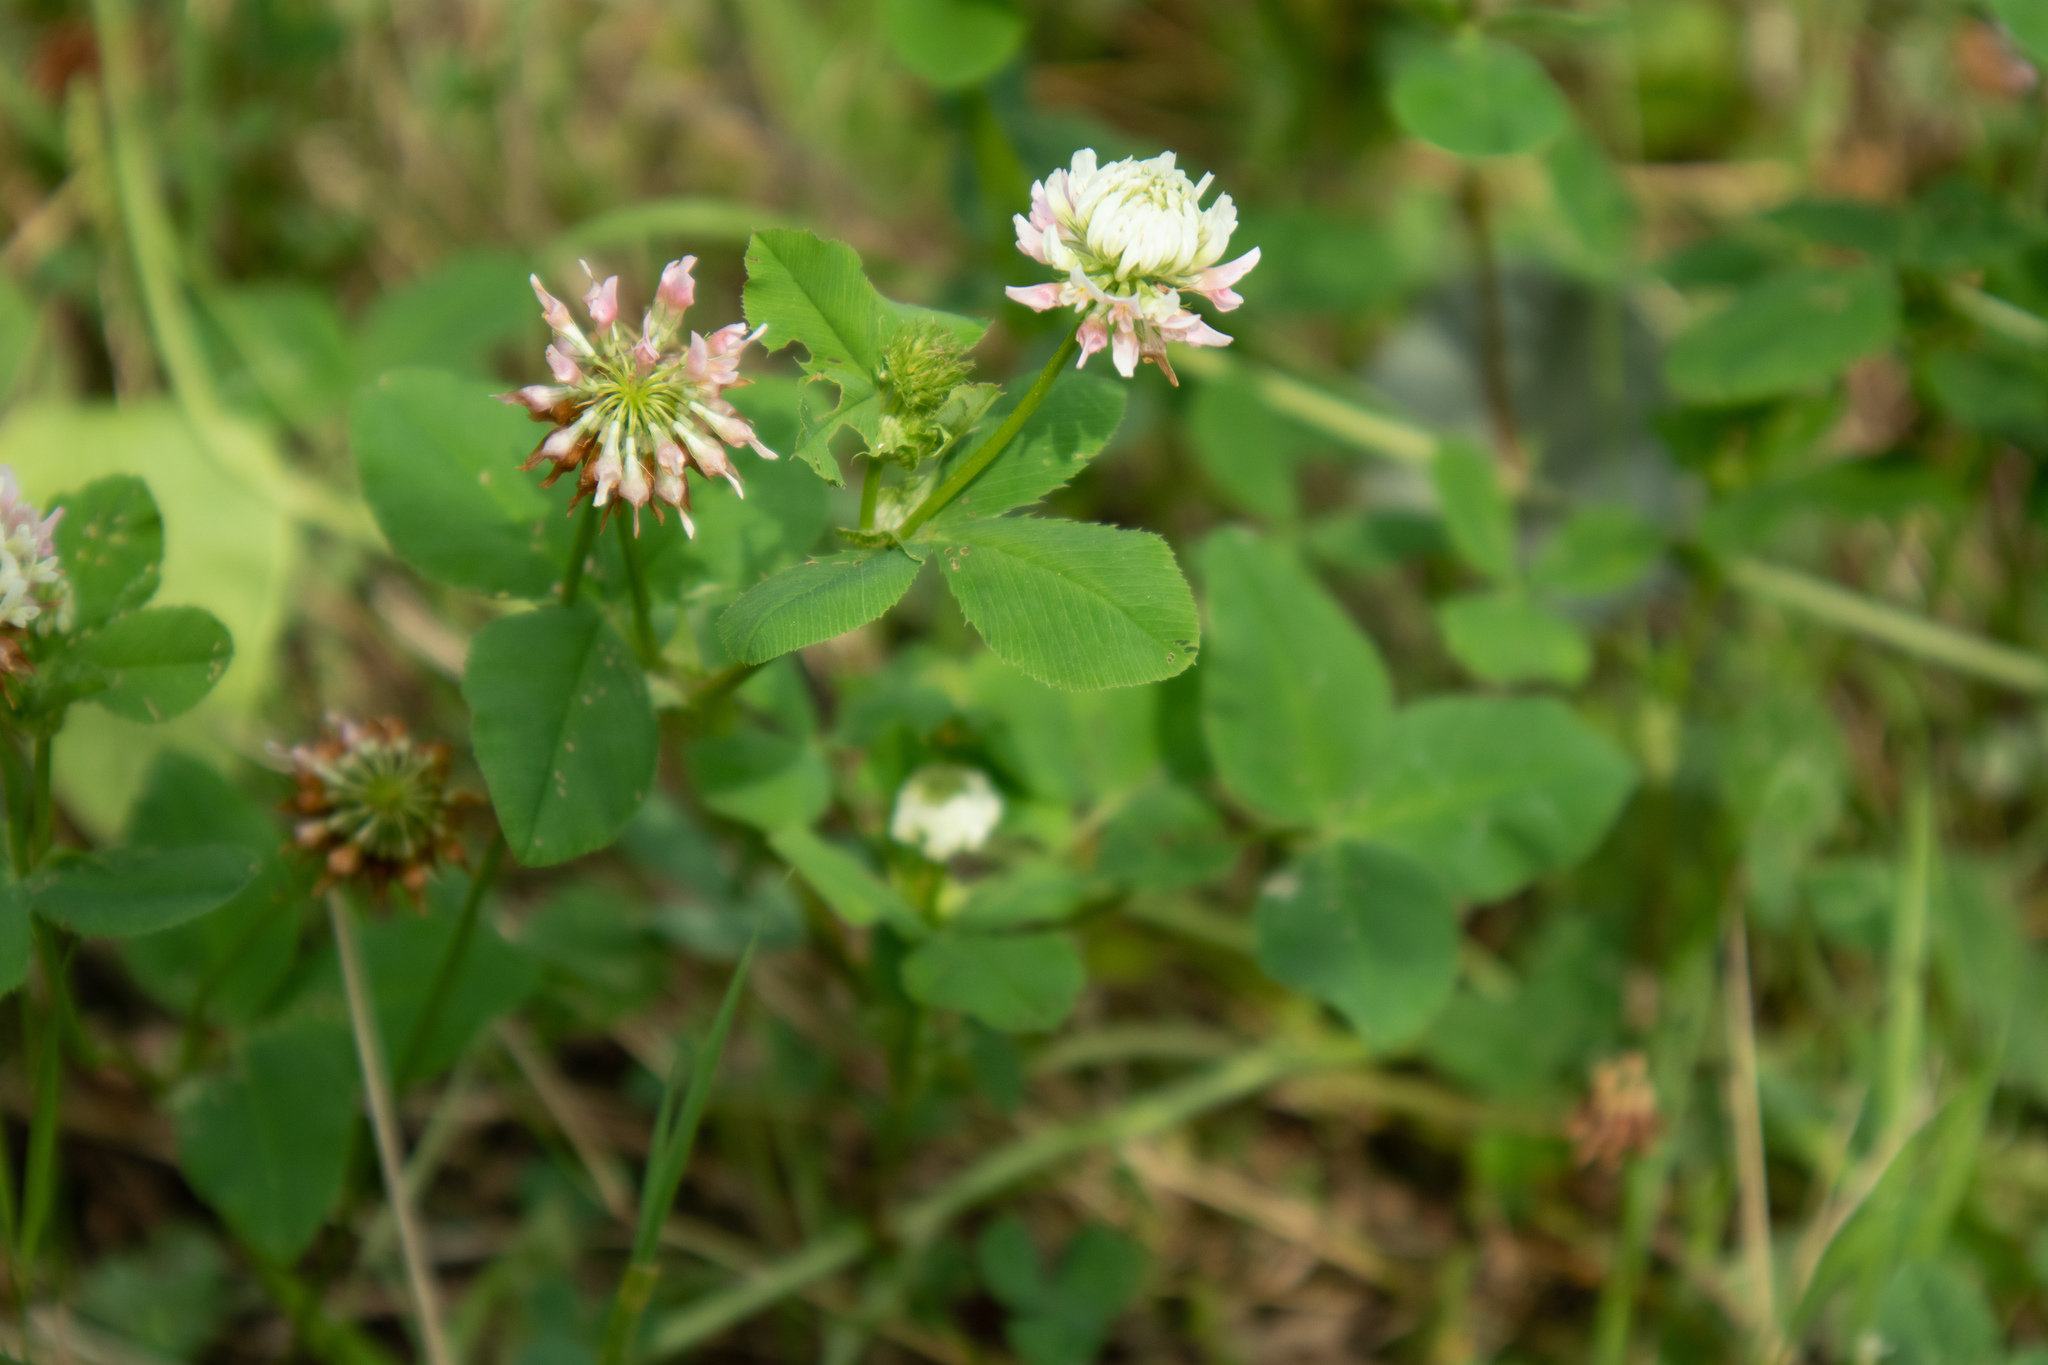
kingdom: Plantae
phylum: Tracheophyta
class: Magnoliopsida
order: Fabales
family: Fabaceae
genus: Trifolium
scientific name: Trifolium hybridum
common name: Alsike clover
